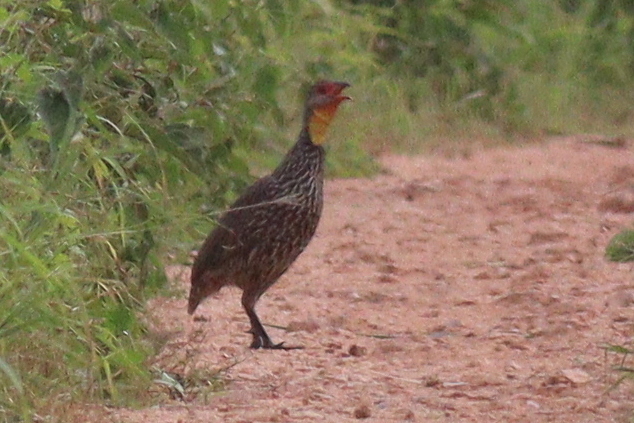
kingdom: Animalia
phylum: Chordata
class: Aves
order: Galliformes
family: Phasianidae
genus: Pternistis
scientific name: Pternistis leucoscepus
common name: Yellow-necked spurfowl
